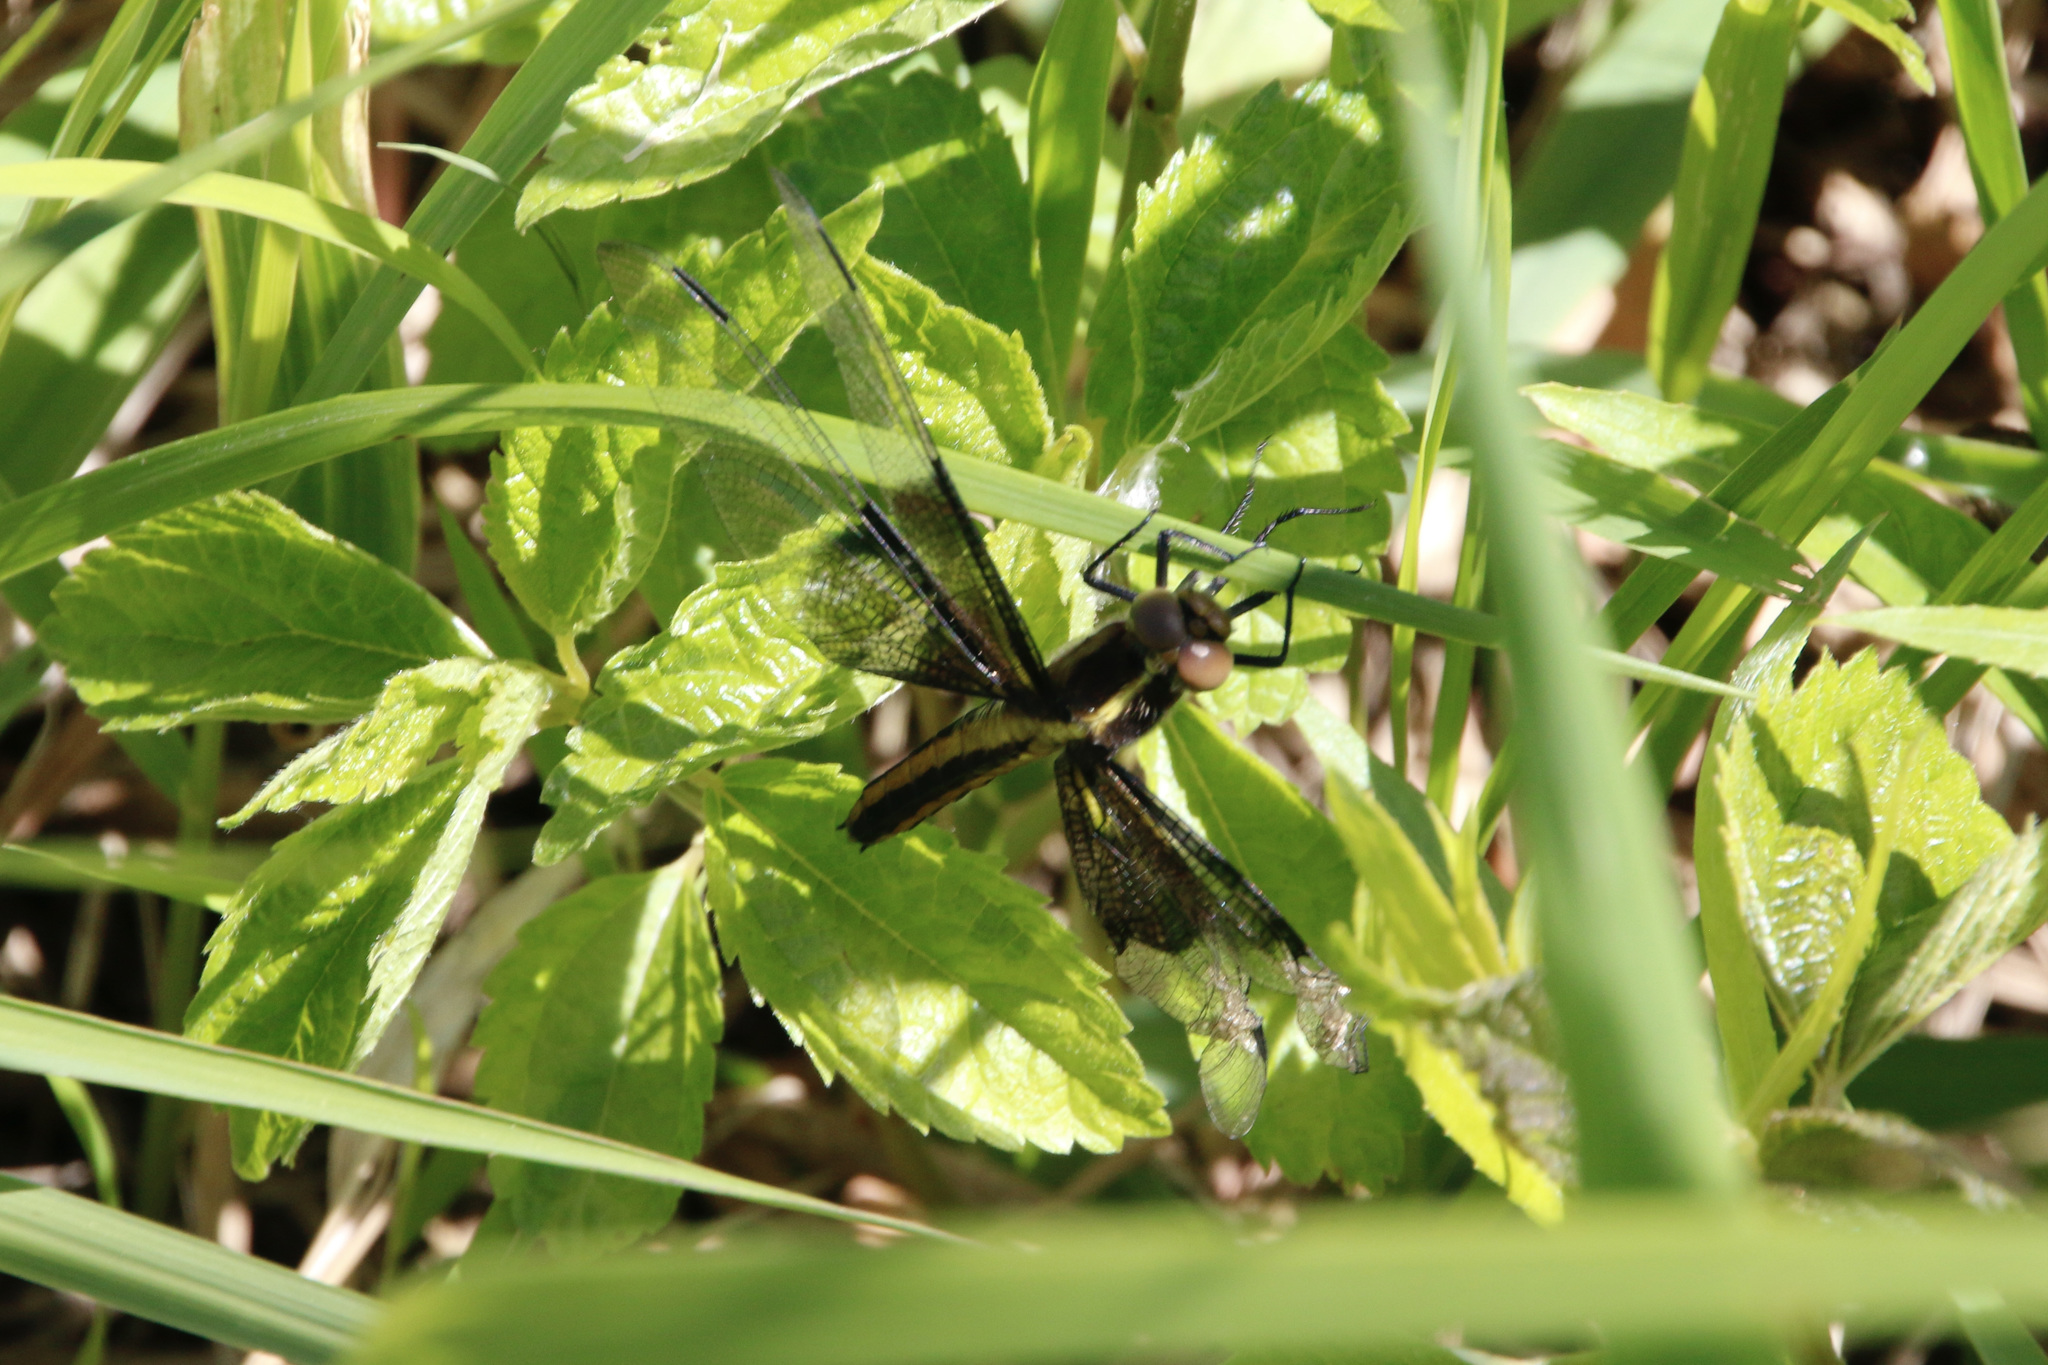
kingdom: Animalia
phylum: Arthropoda
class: Insecta
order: Odonata
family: Libellulidae
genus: Libellula
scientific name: Libellula luctuosa
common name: Widow skimmer
